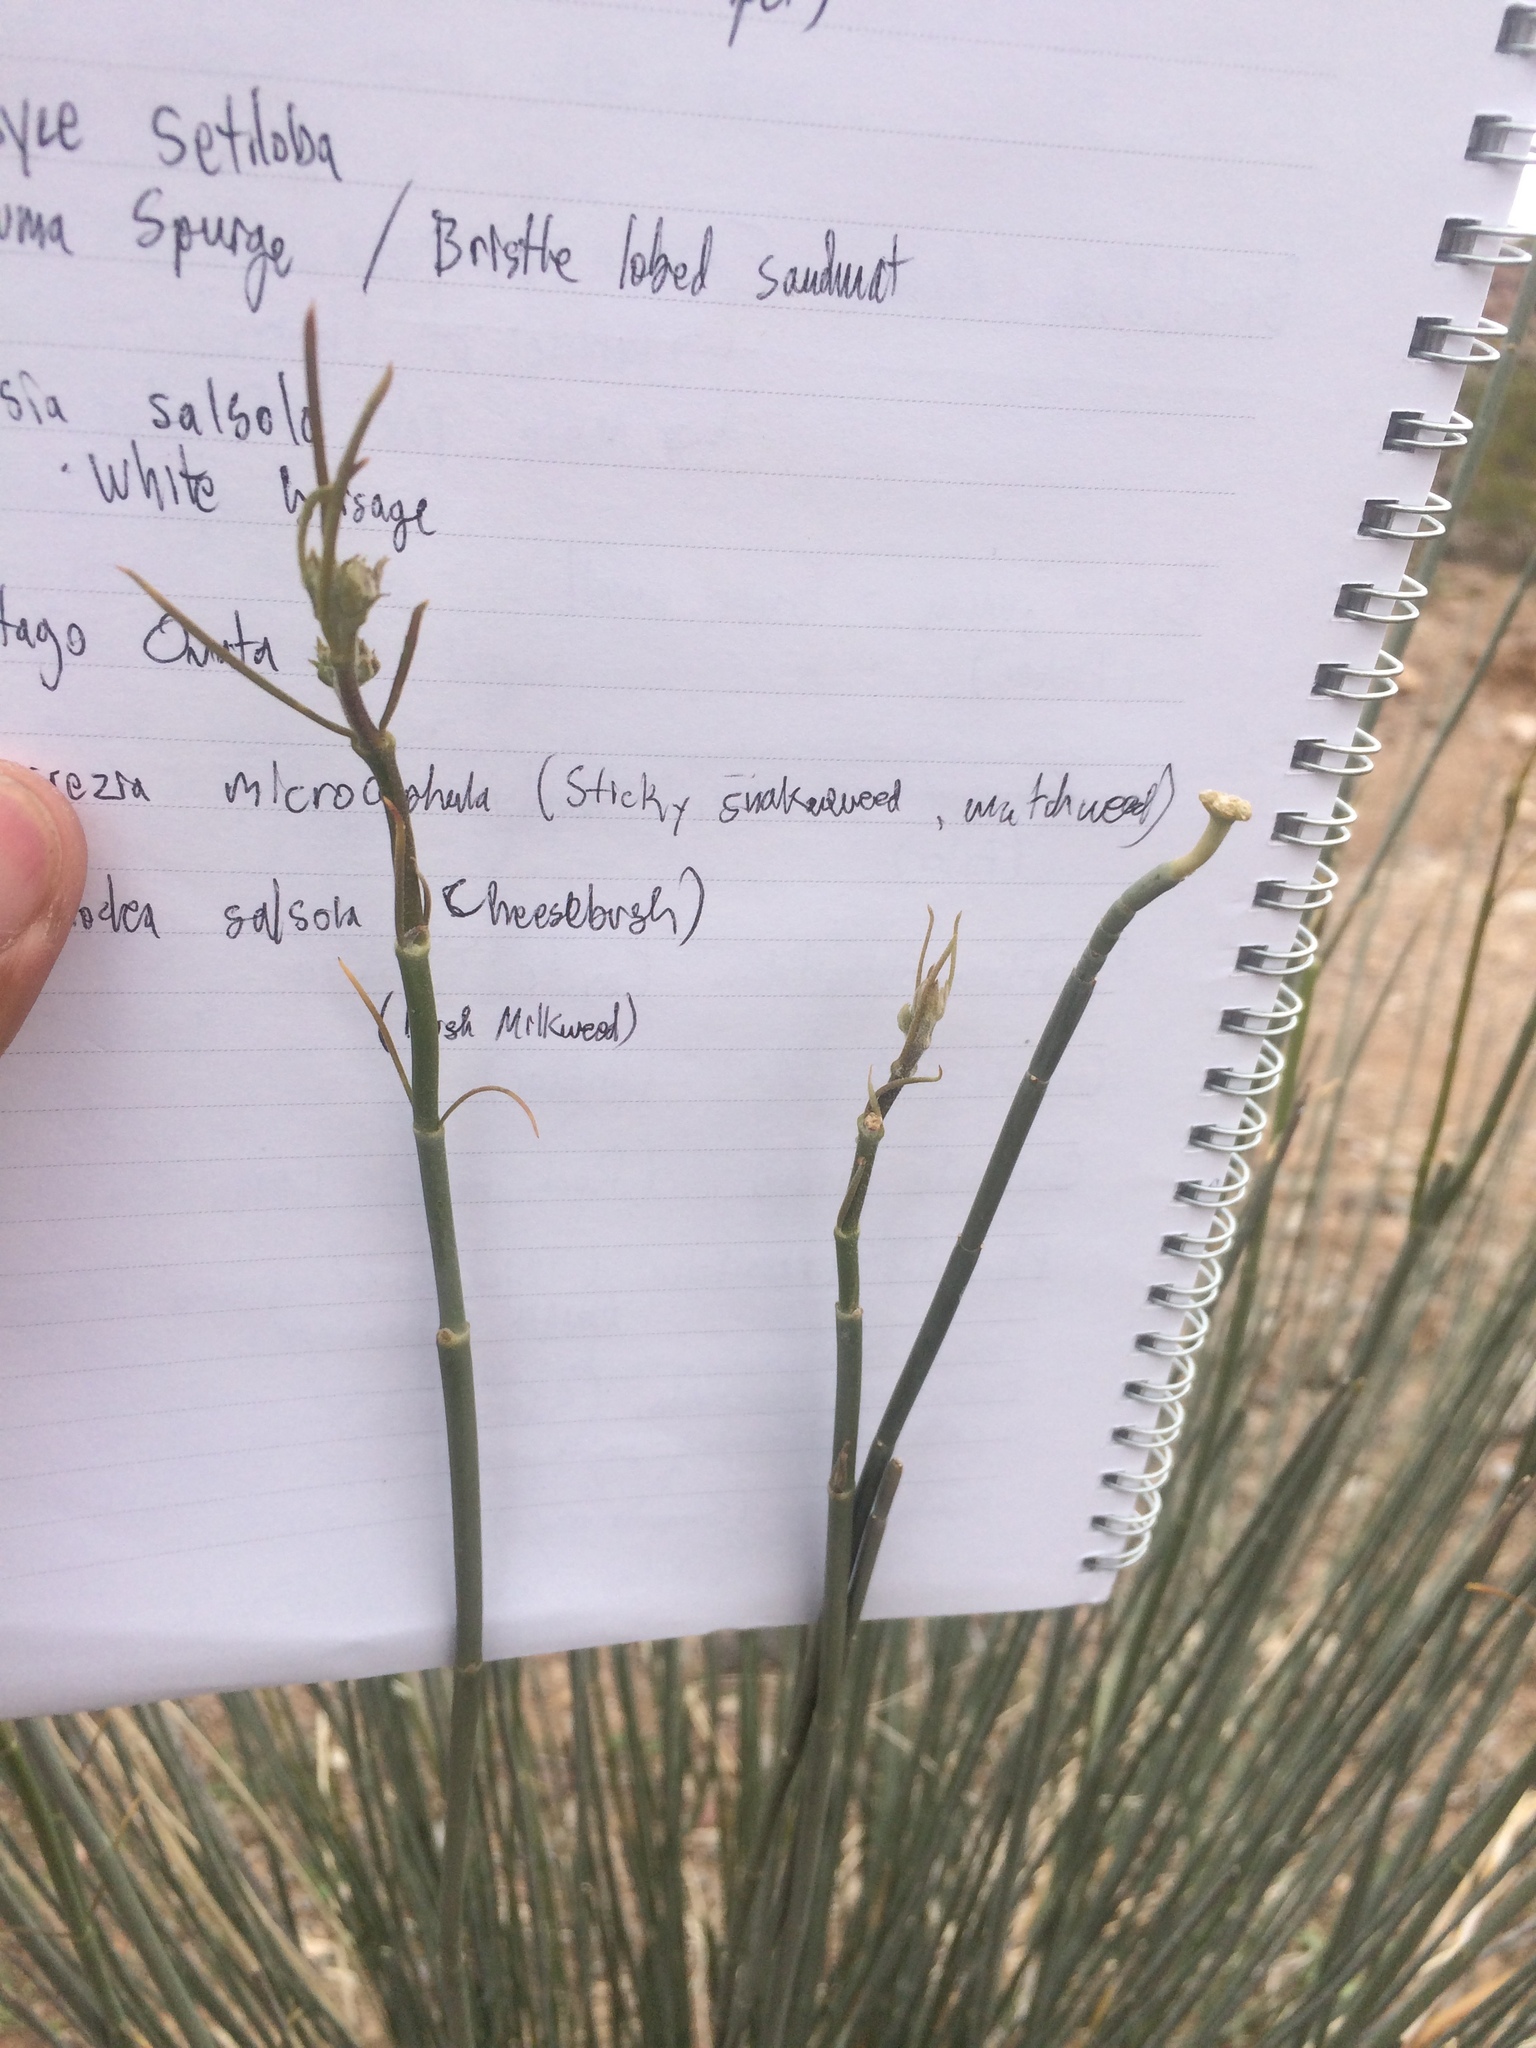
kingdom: Plantae
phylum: Tracheophyta
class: Magnoliopsida
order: Gentianales
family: Apocynaceae
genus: Asclepias
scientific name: Asclepias subulata
